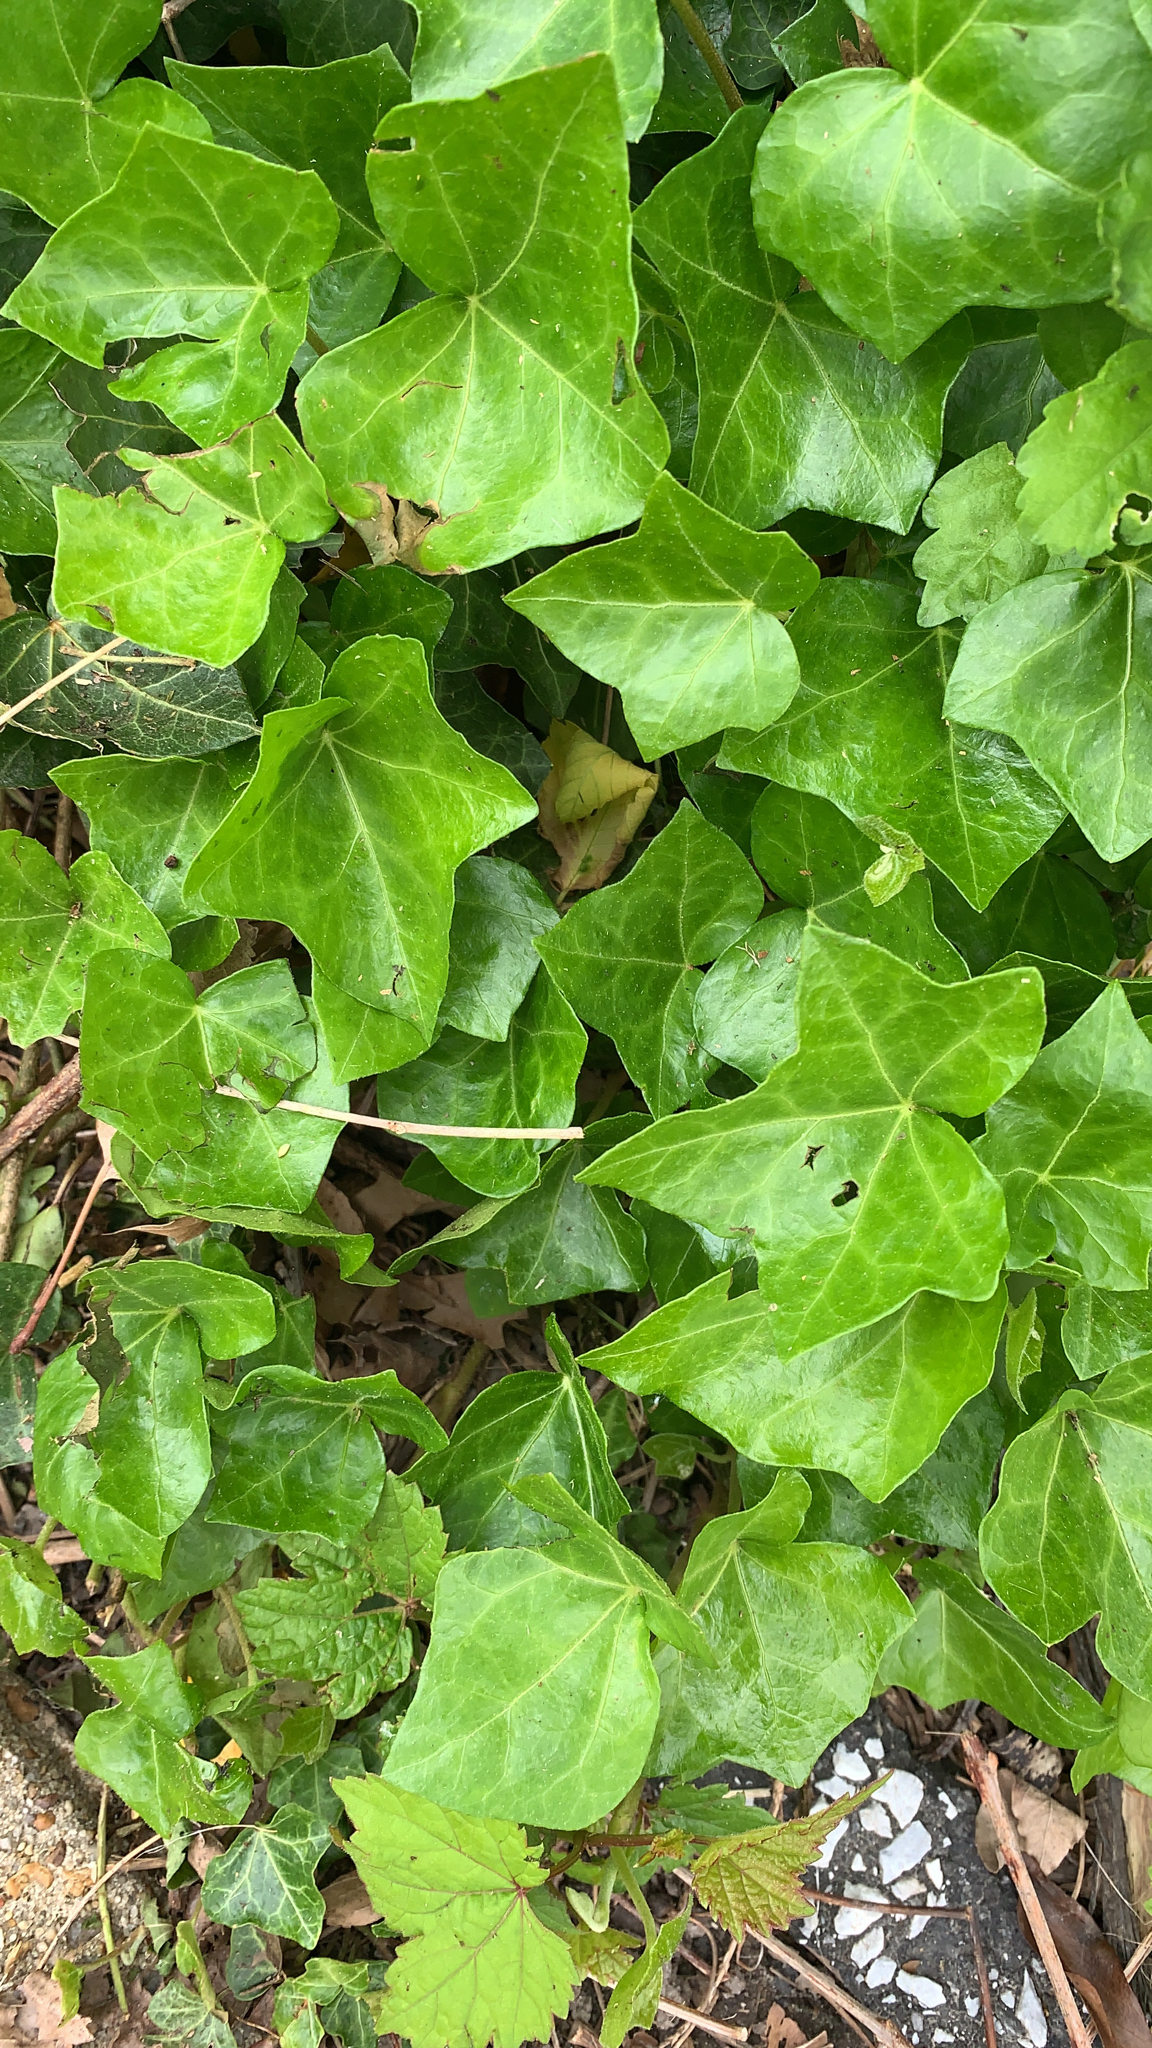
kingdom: Plantae
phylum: Tracheophyta
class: Magnoliopsida
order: Apiales
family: Araliaceae
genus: Hedera
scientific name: Hedera helix
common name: Ivy
